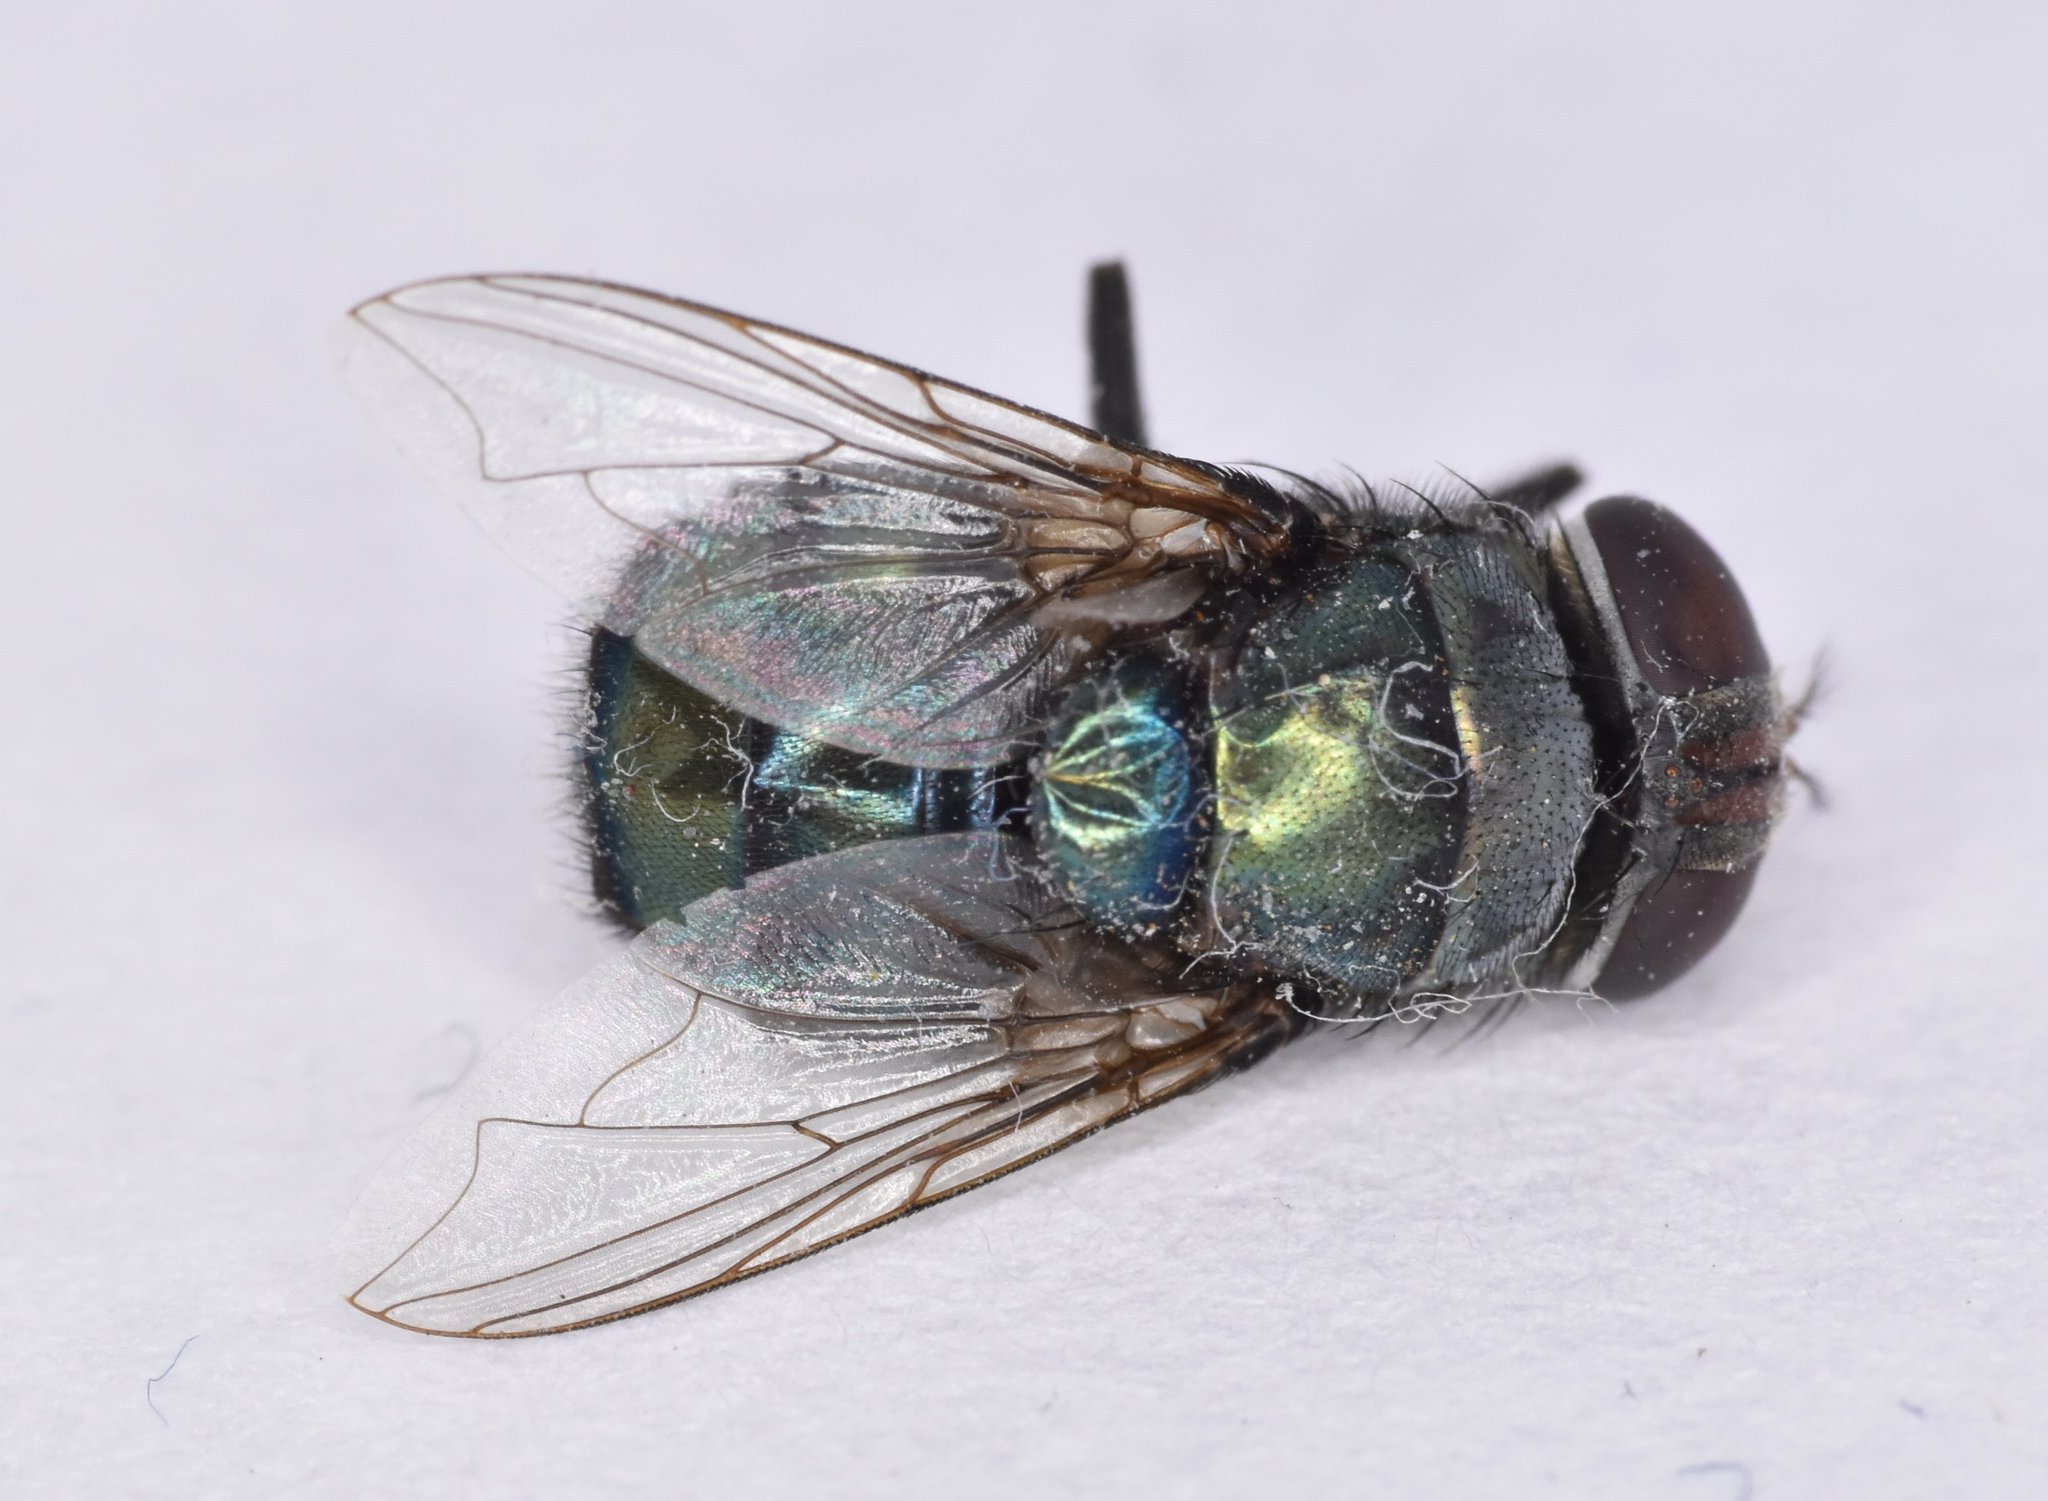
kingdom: Animalia
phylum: Arthropoda
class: Insecta
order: Diptera
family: Calliphoridae
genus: Chrysomya
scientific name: Chrysomya megacephala
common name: Blow fly
